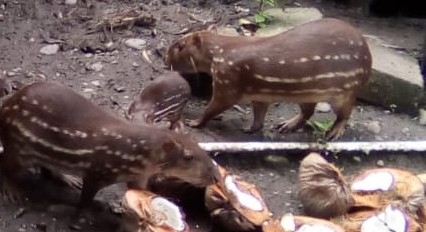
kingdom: Animalia
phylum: Chordata
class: Mammalia
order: Rodentia
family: Cuniculidae
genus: Cuniculus
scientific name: Cuniculus paca
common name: Lowland paca
